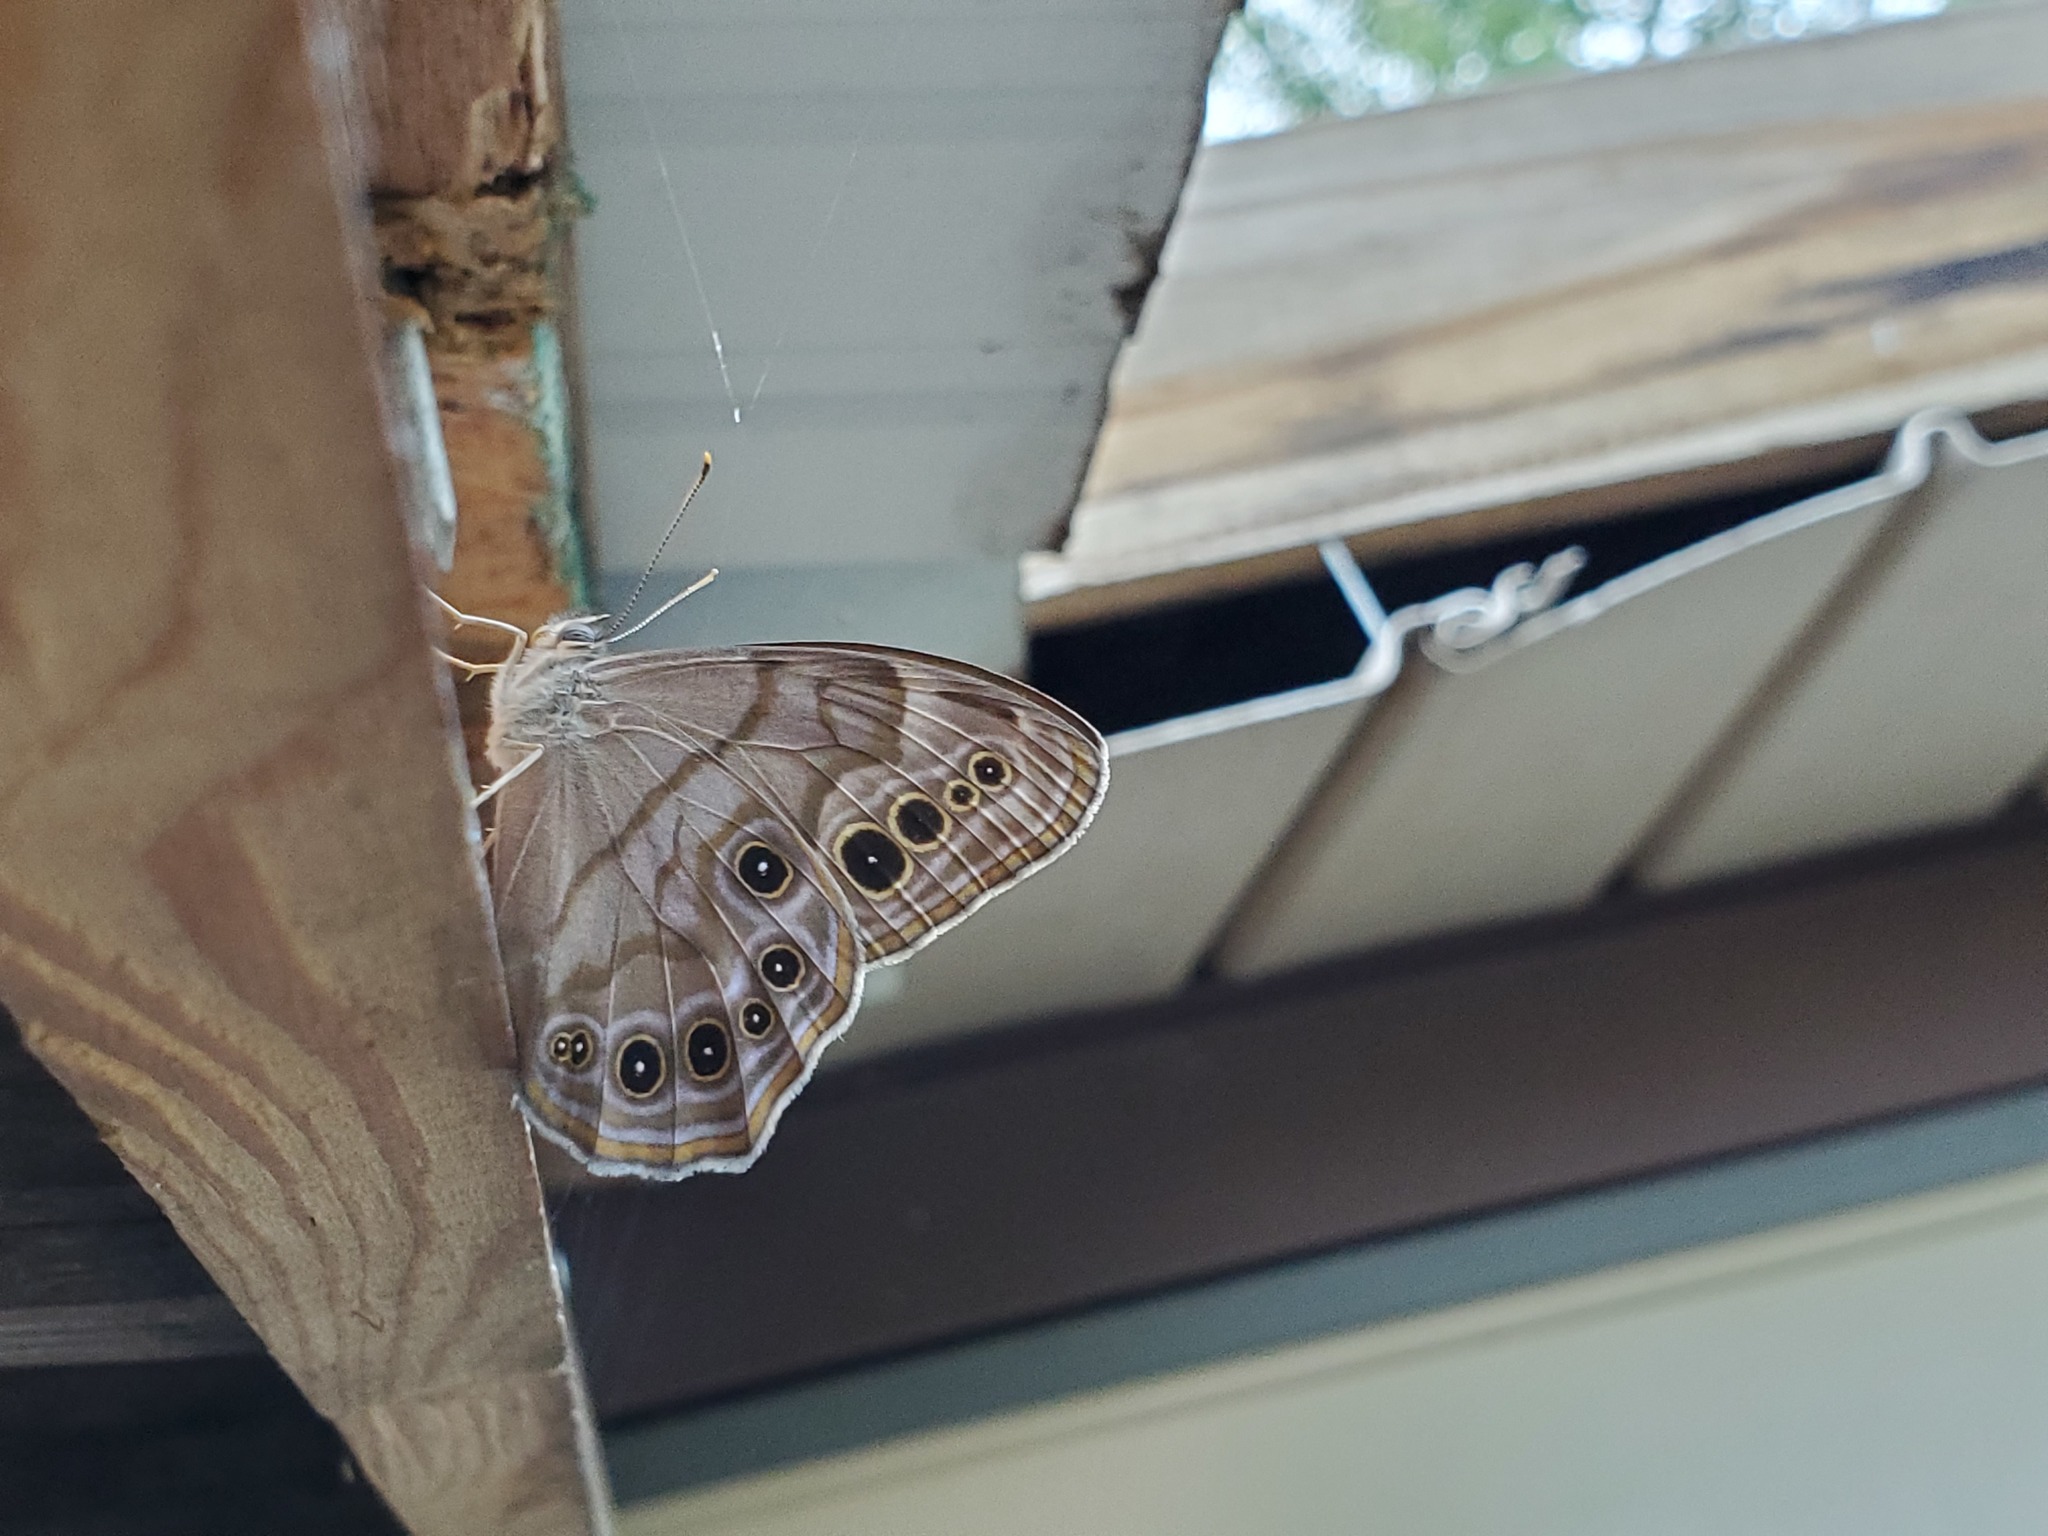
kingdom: Animalia
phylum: Arthropoda
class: Insecta
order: Lepidoptera
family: Nymphalidae
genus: Lethe
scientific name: Lethe anthedon
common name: Northern pearly-eye
